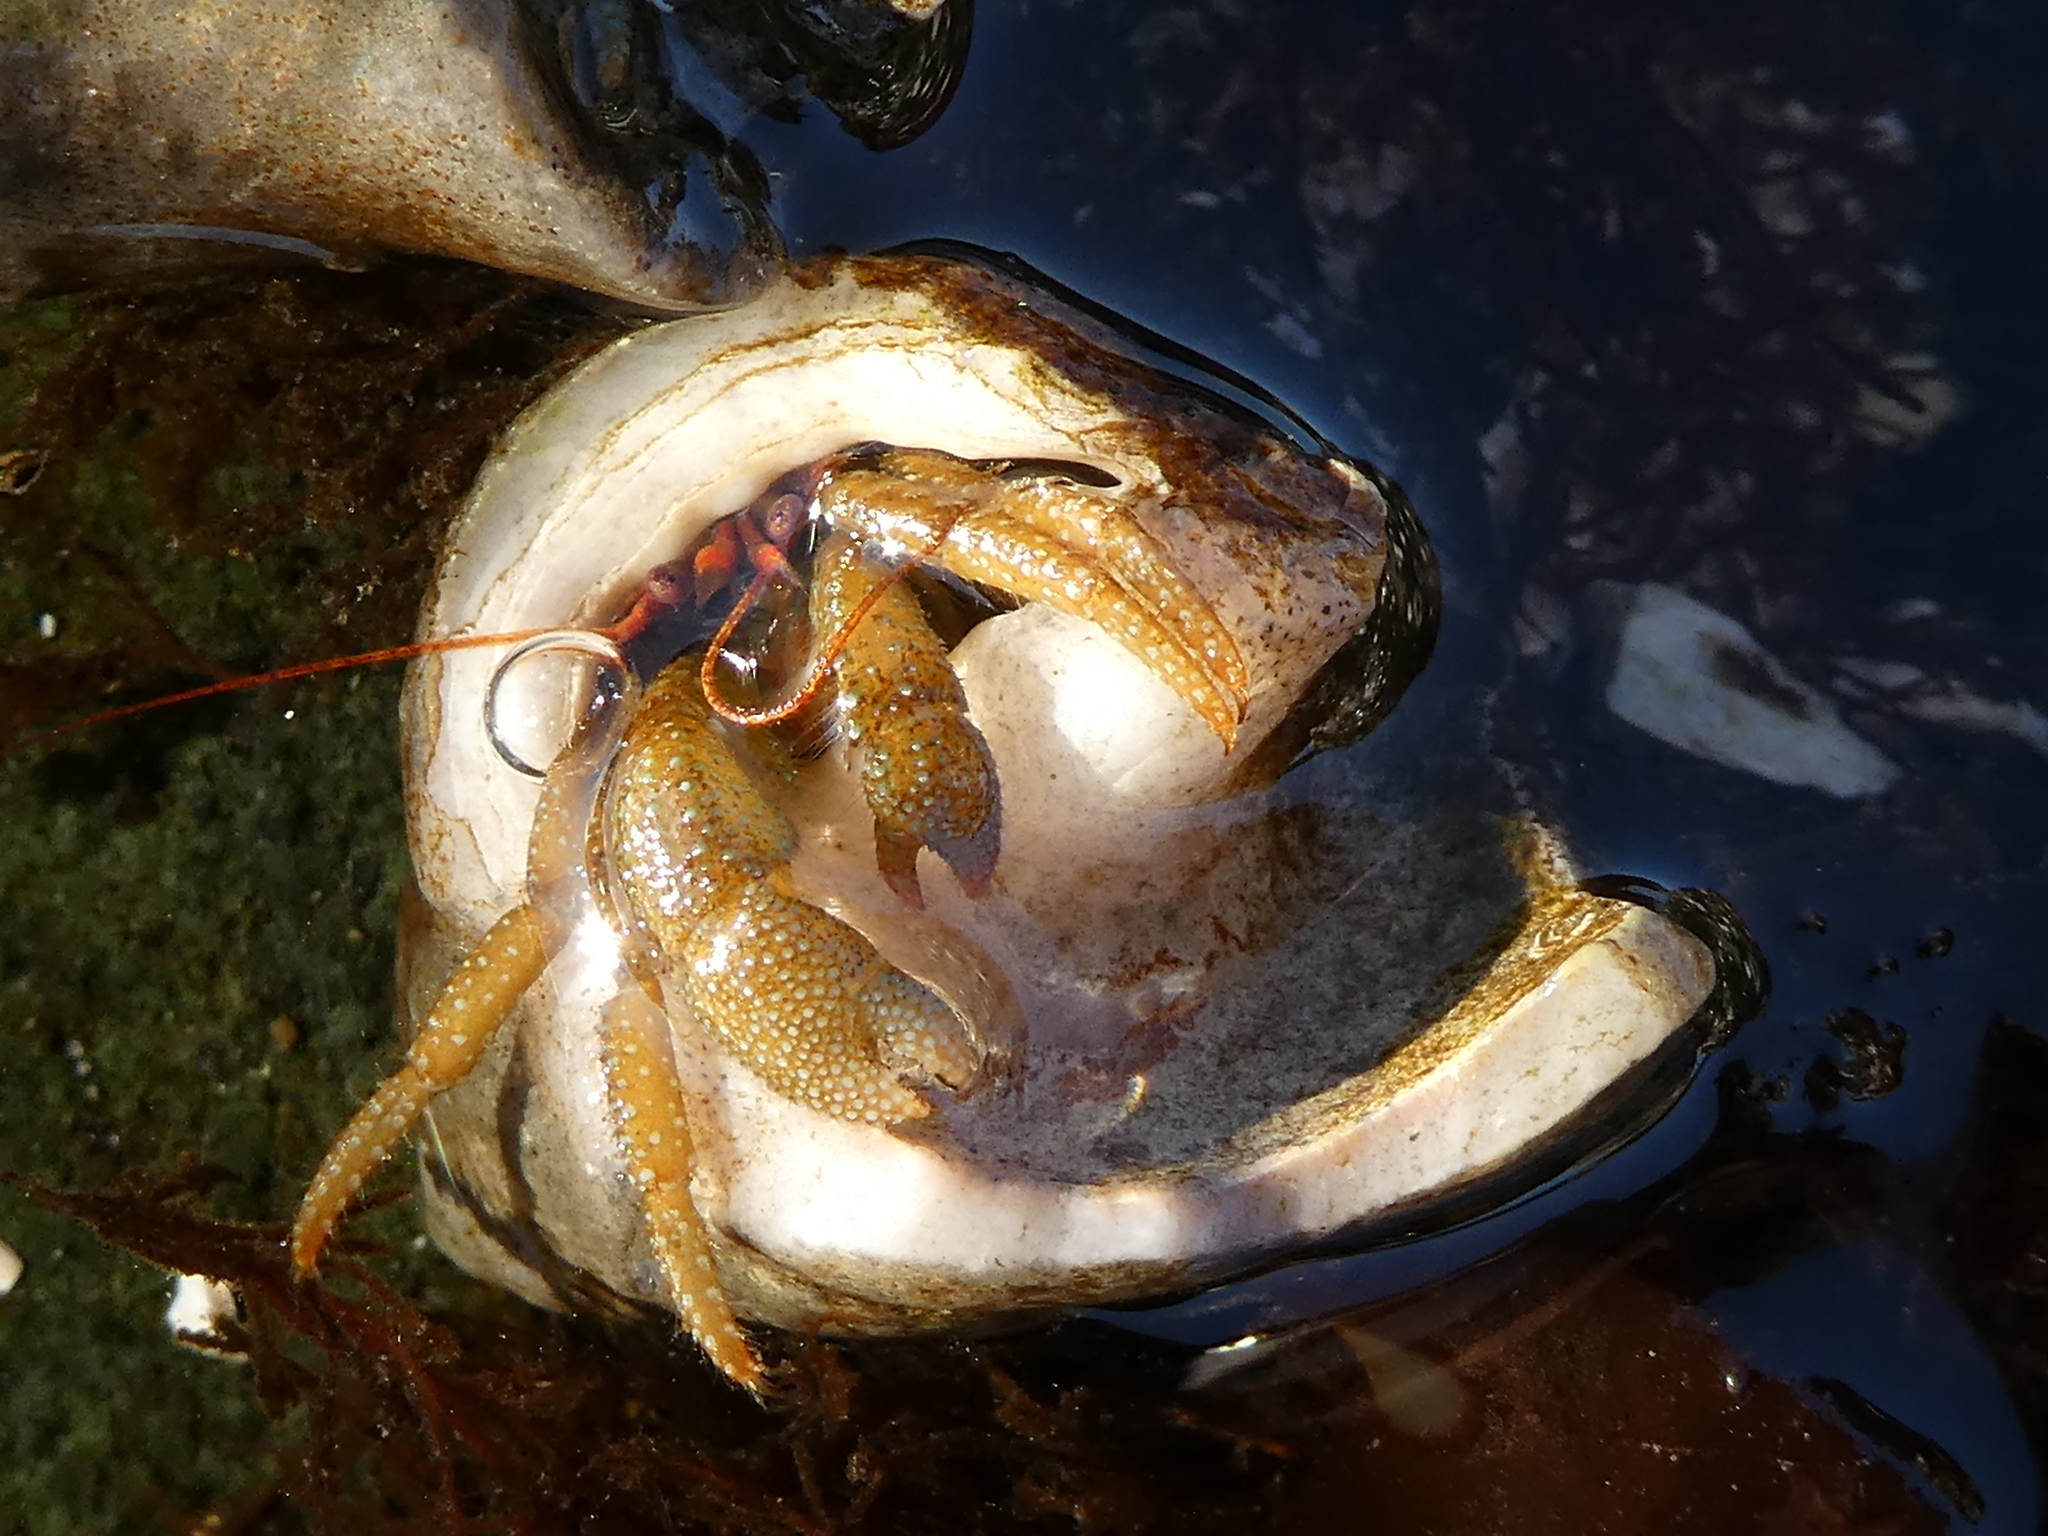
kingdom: Animalia
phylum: Arthropoda
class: Malacostraca
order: Decapoda
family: Paguridae
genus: Pagurus
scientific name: Pagurus granosimanus
